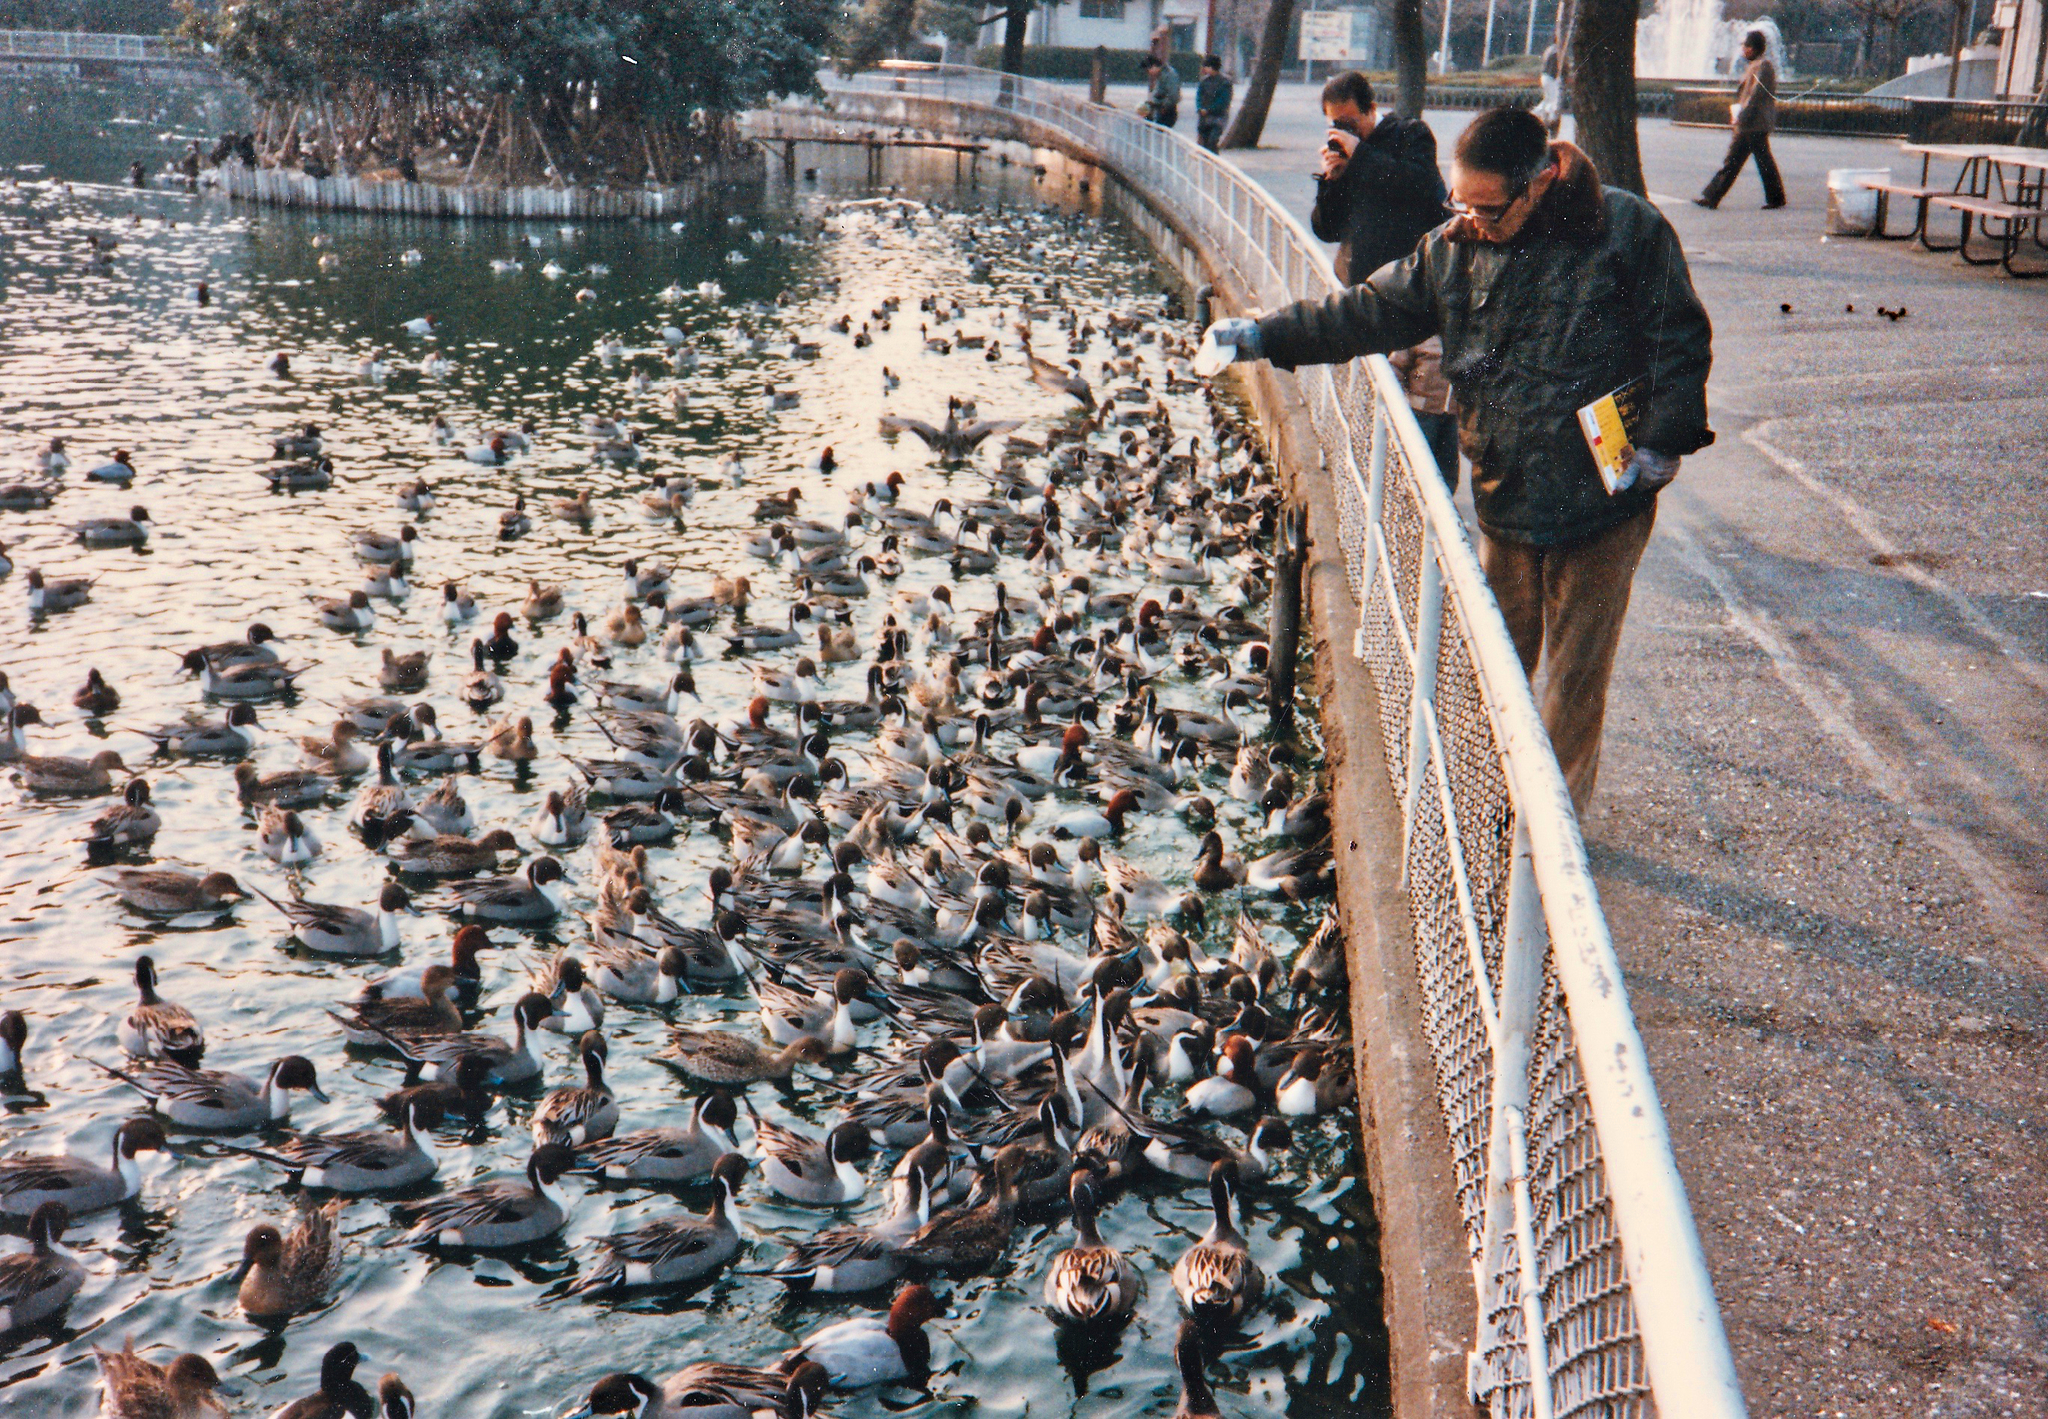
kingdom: Animalia
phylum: Chordata
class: Aves
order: Anseriformes
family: Anatidae
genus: Anas
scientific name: Anas acuta
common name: Northern pintail
